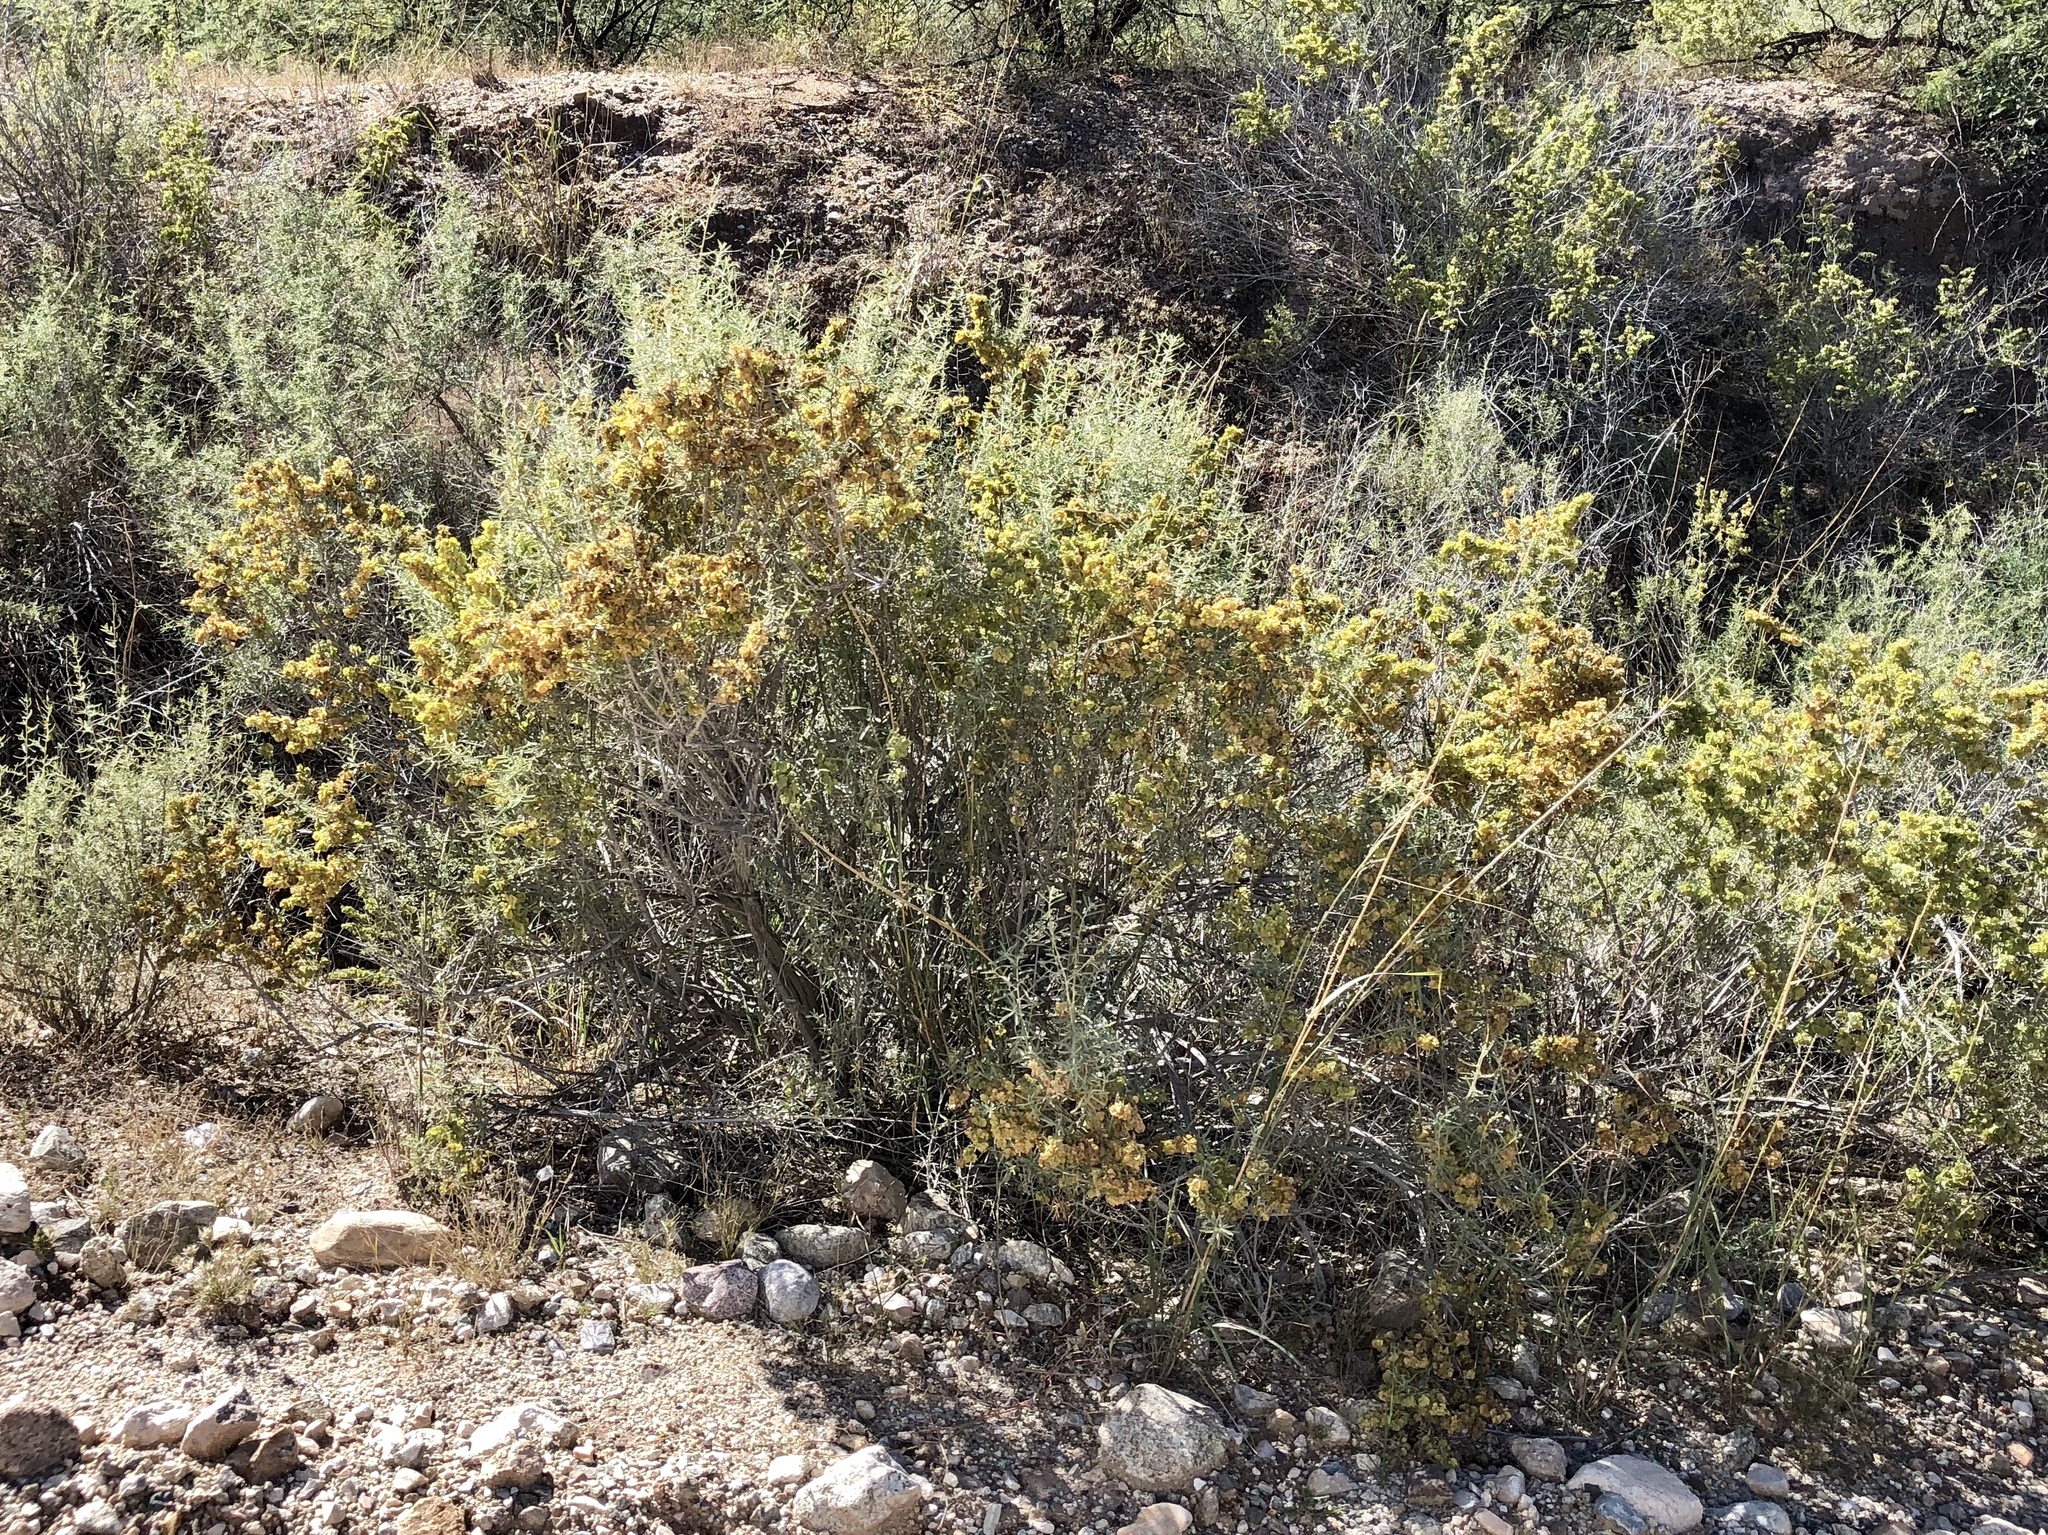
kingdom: Plantae
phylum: Tracheophyta
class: Magnoliopsida
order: Caryophyllales
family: Amaranthaceae
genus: Atriplex
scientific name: Atriplex canescens
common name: Four-wing saltbush
